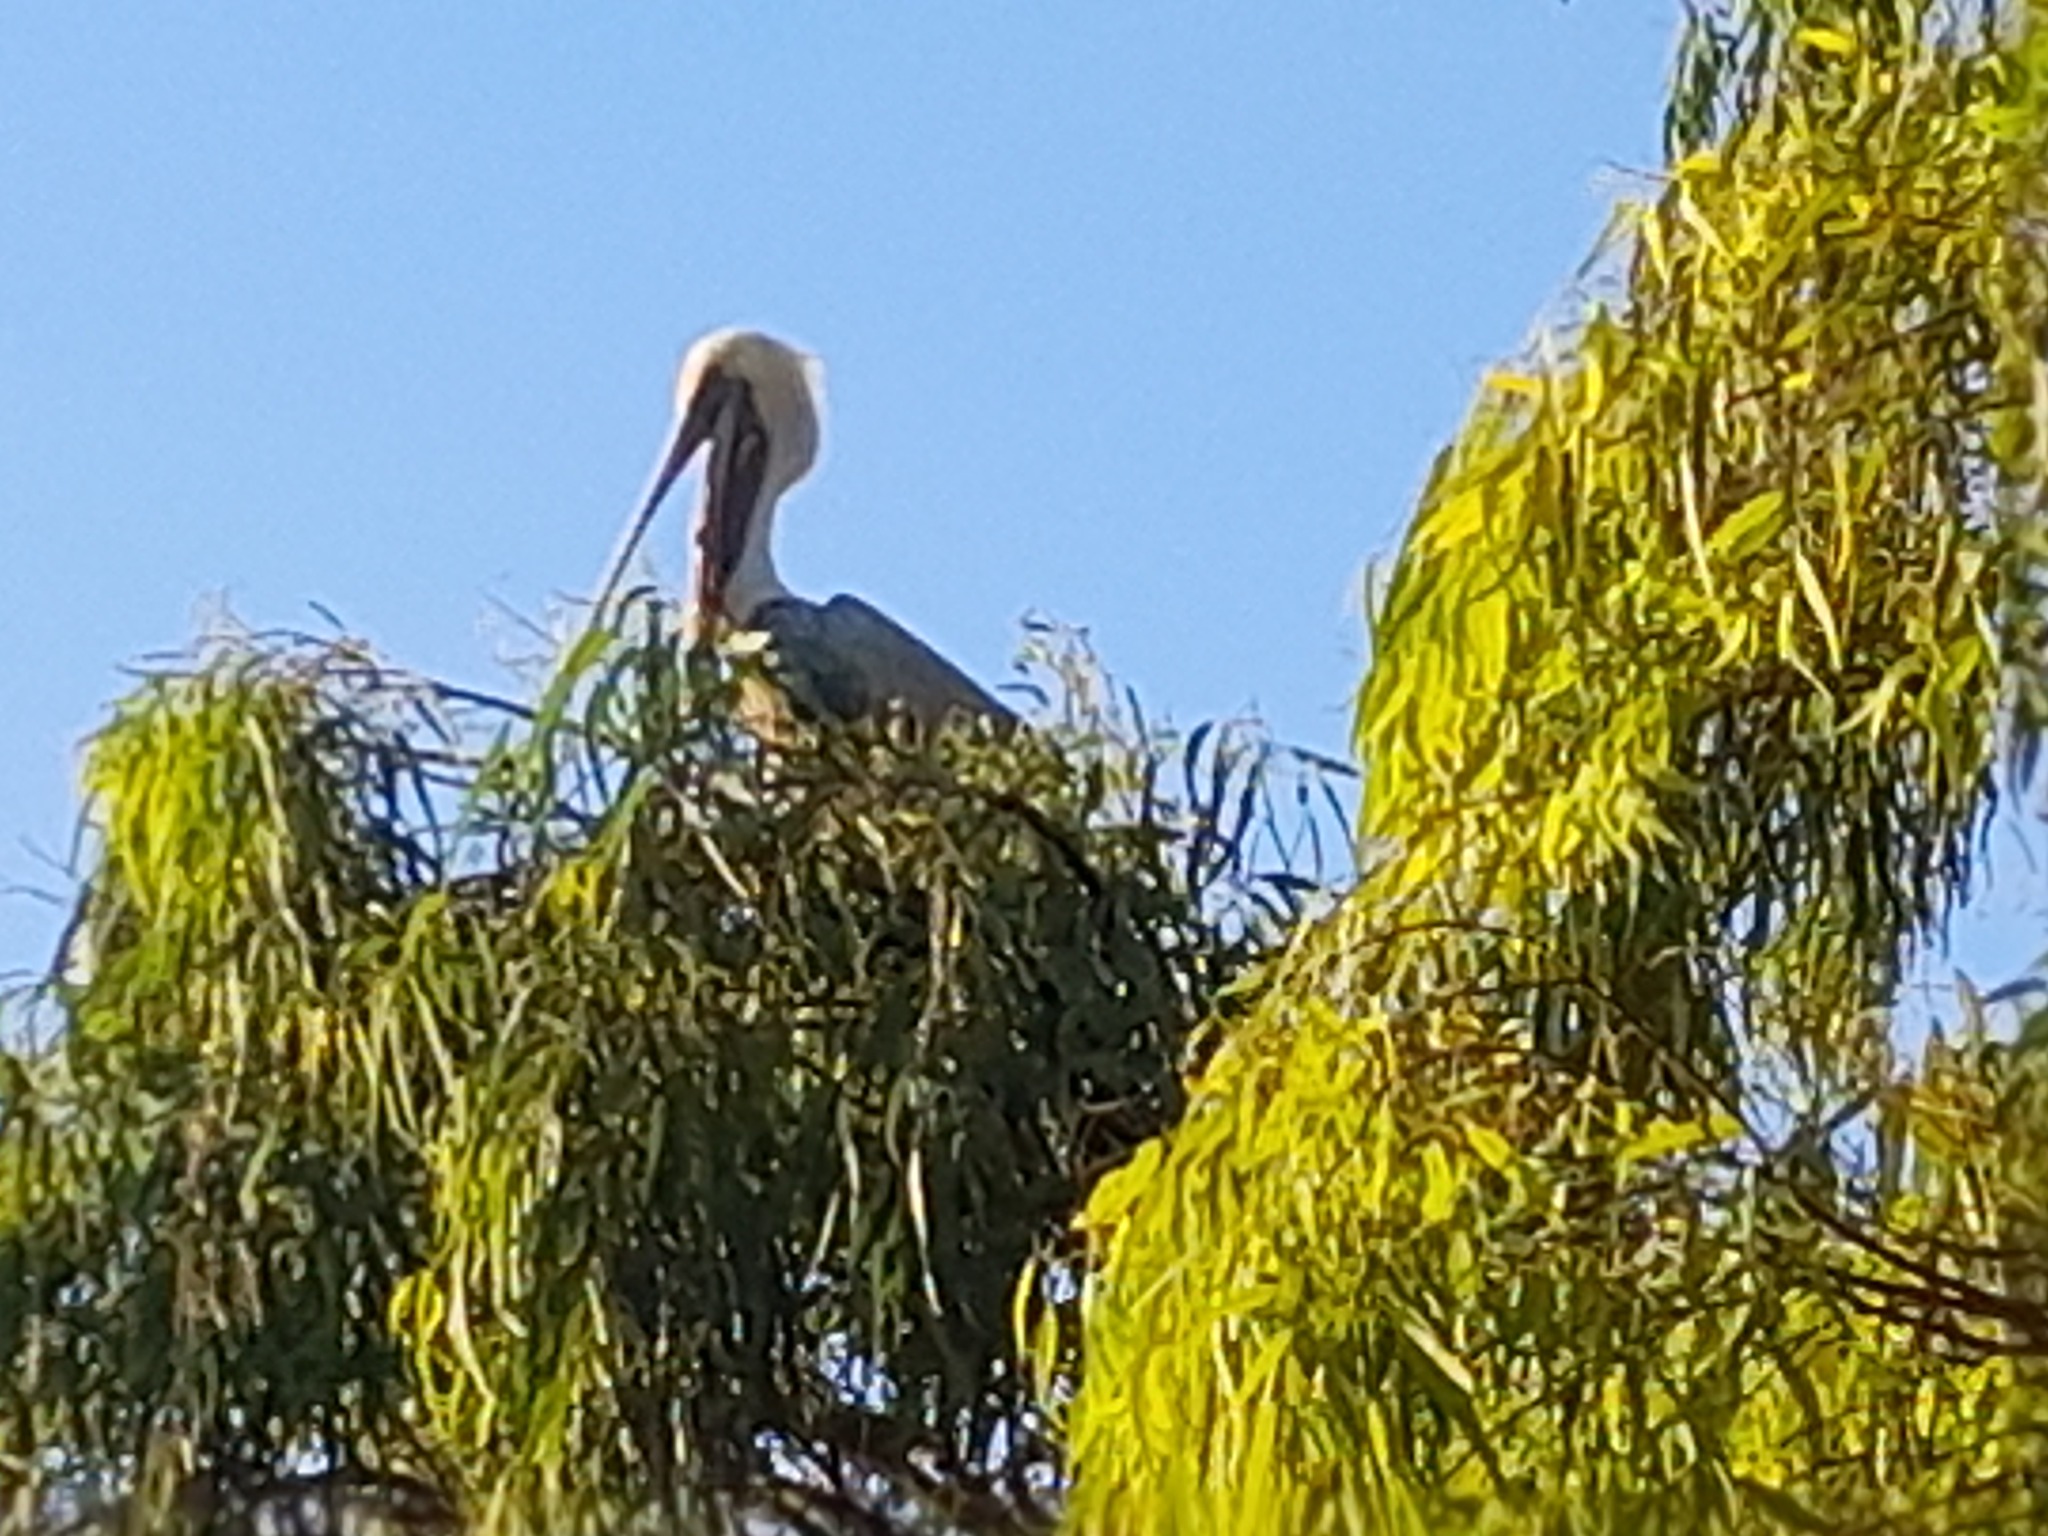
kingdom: Animalia
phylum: Chordata
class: Aves
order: Pelecaniformes
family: Pelecanidae
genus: Pelecanus
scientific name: Pelecanus occidentalis
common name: Brown pelican
